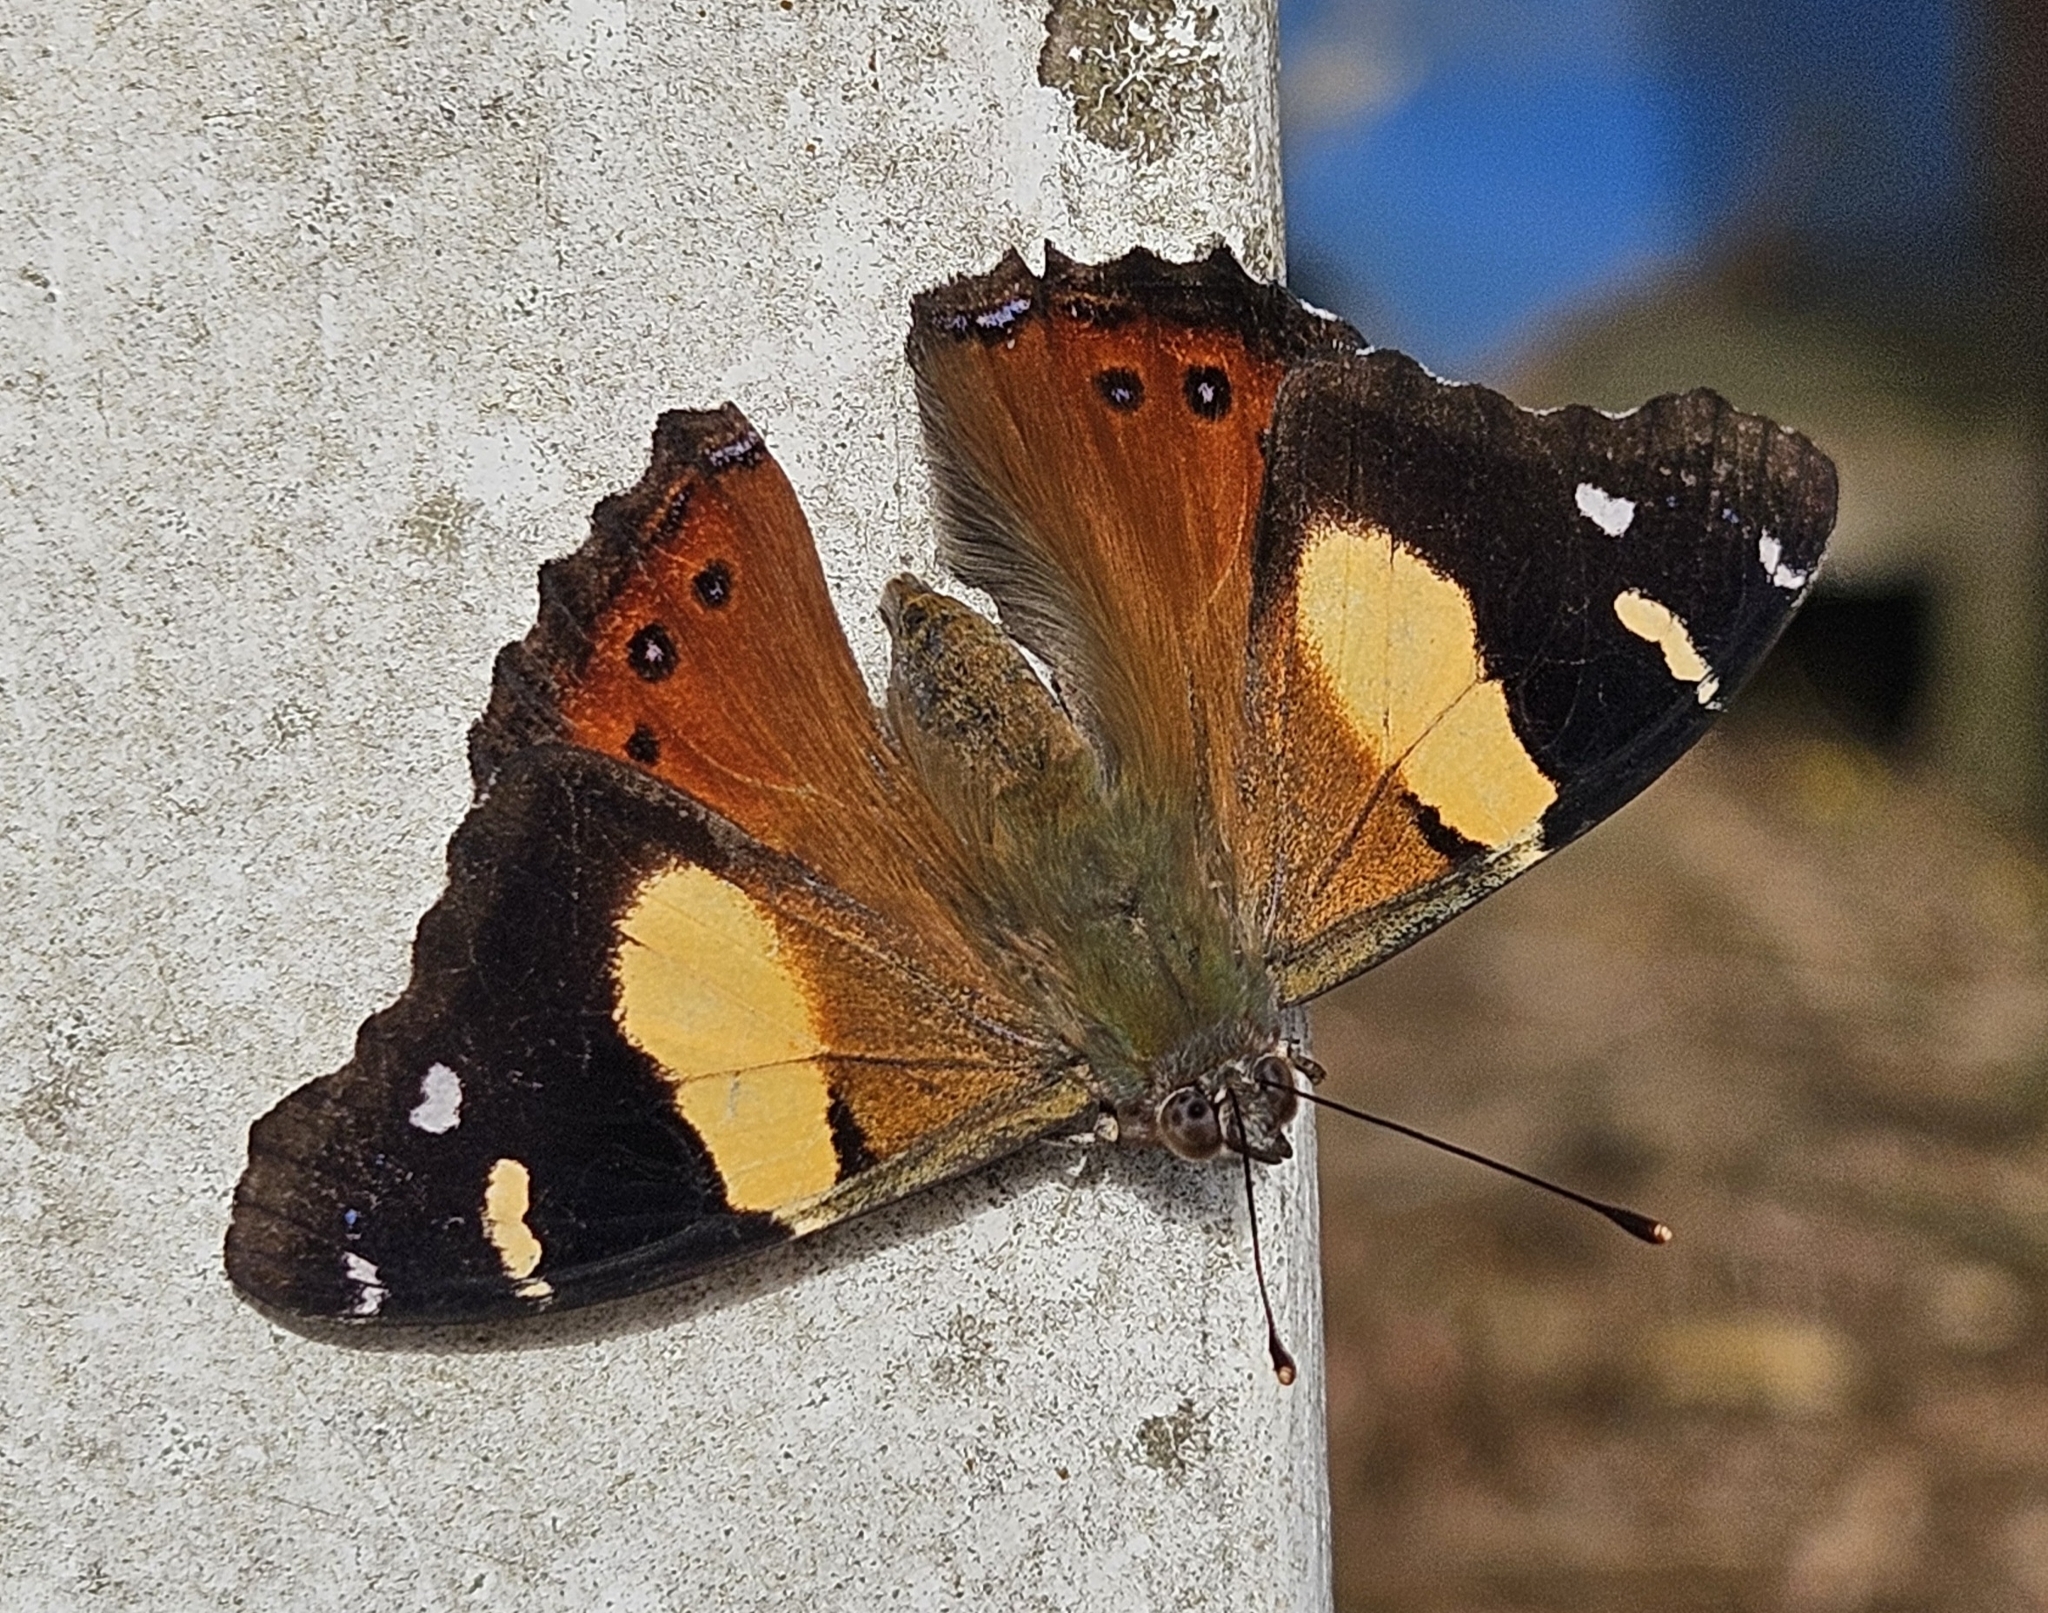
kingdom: Animalia
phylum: Arthropoda
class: Insecta
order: Lepidoptera
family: Nymphalidae
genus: Vanessa
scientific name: Vanessa itea
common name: Yellow admiral
